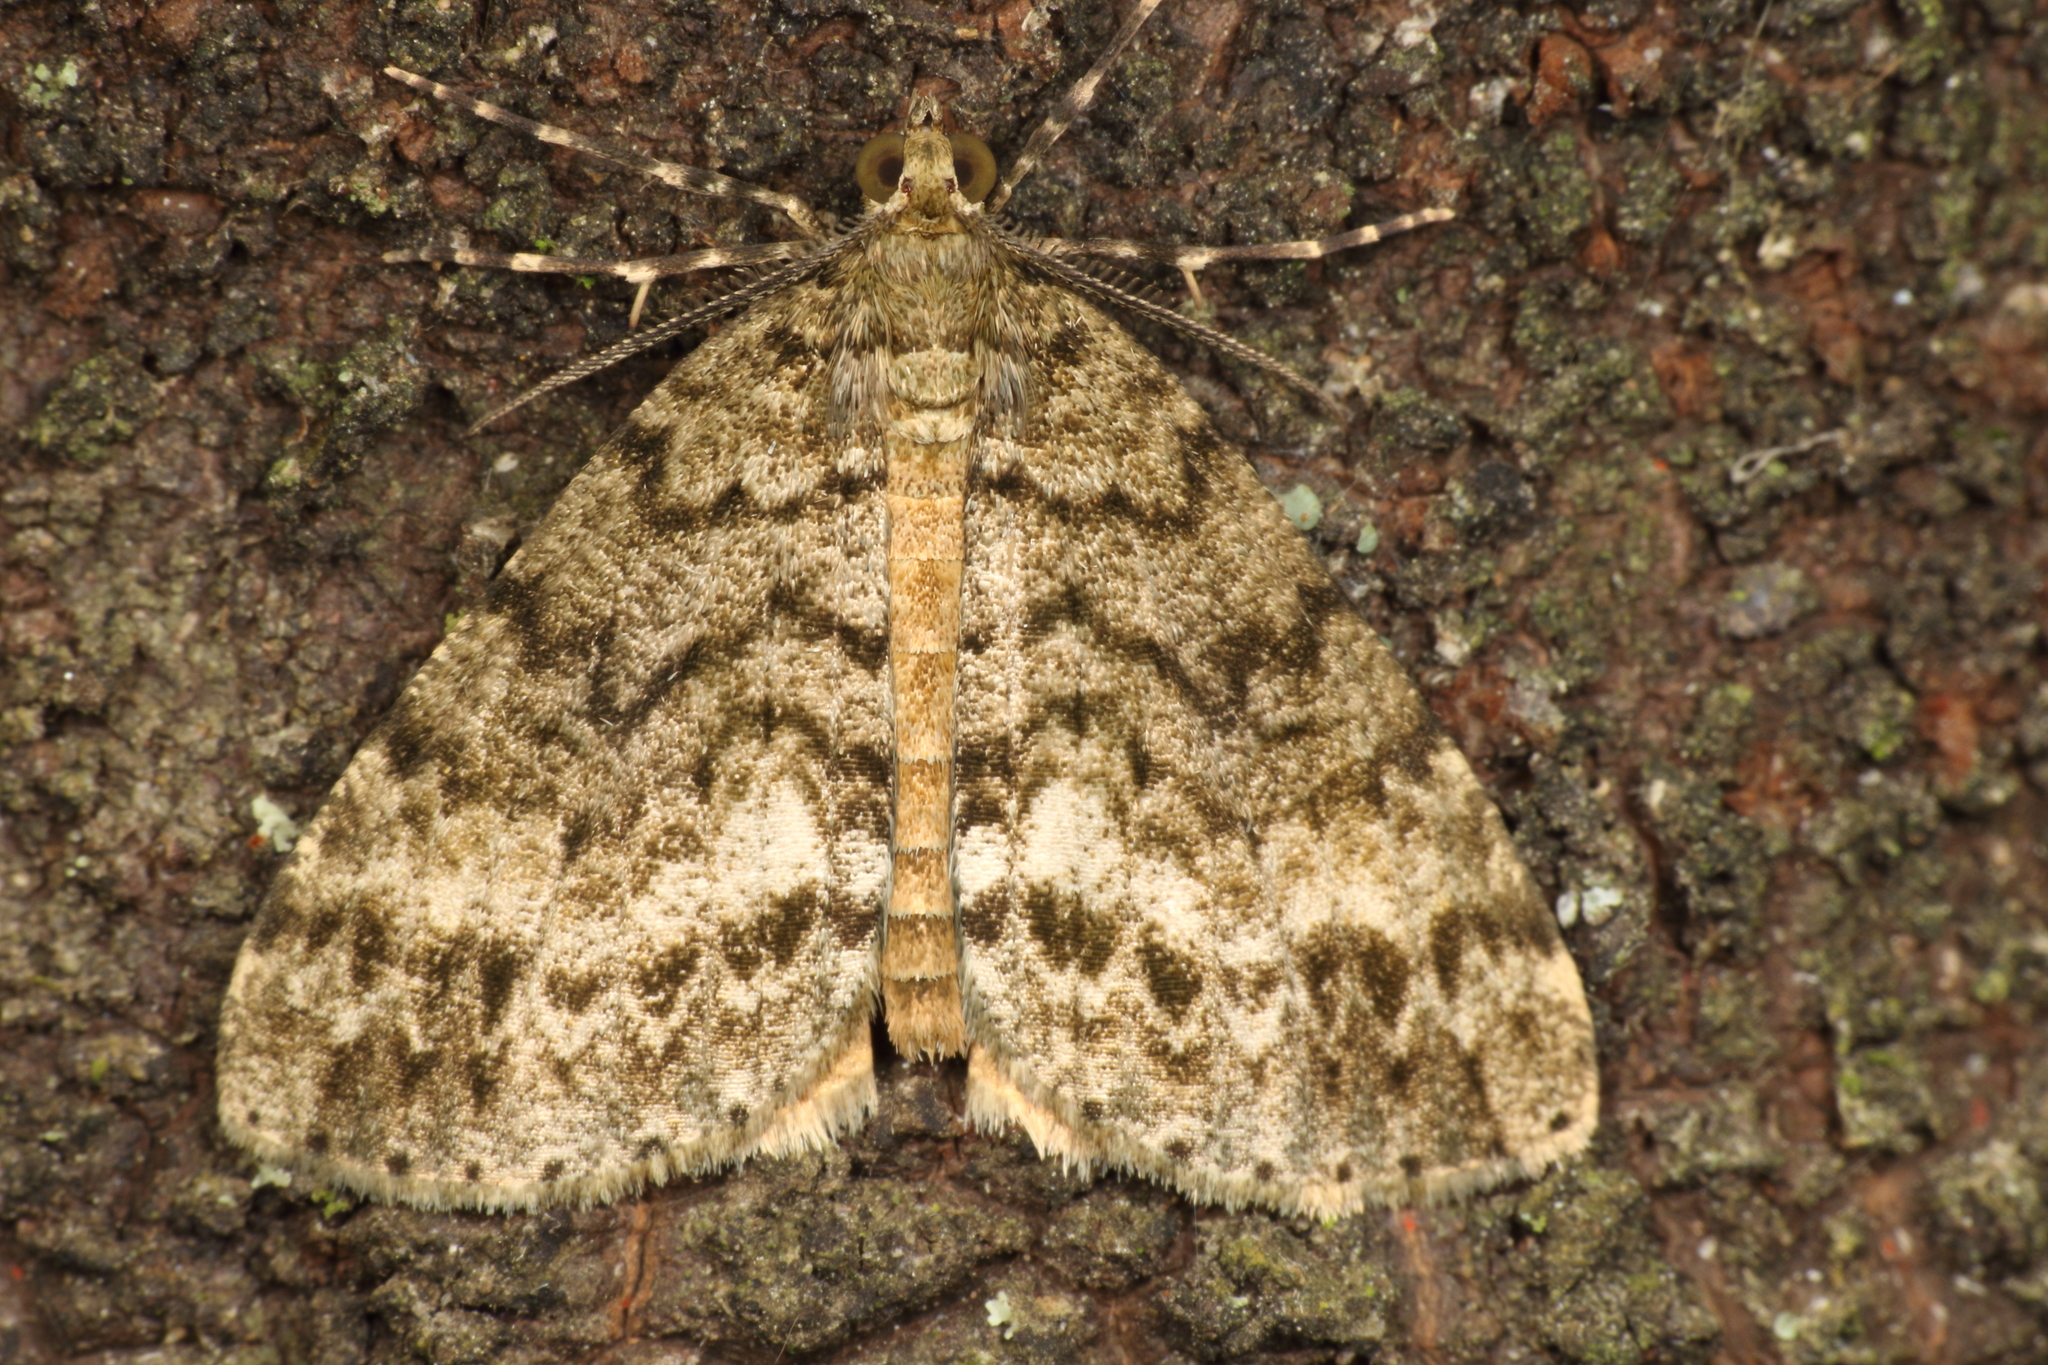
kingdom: Animalia
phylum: Arthropoda
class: Insecta
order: Lepidoptera
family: Geometridae
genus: Pseudocoremia
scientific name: Pseudocoremia indistincta
